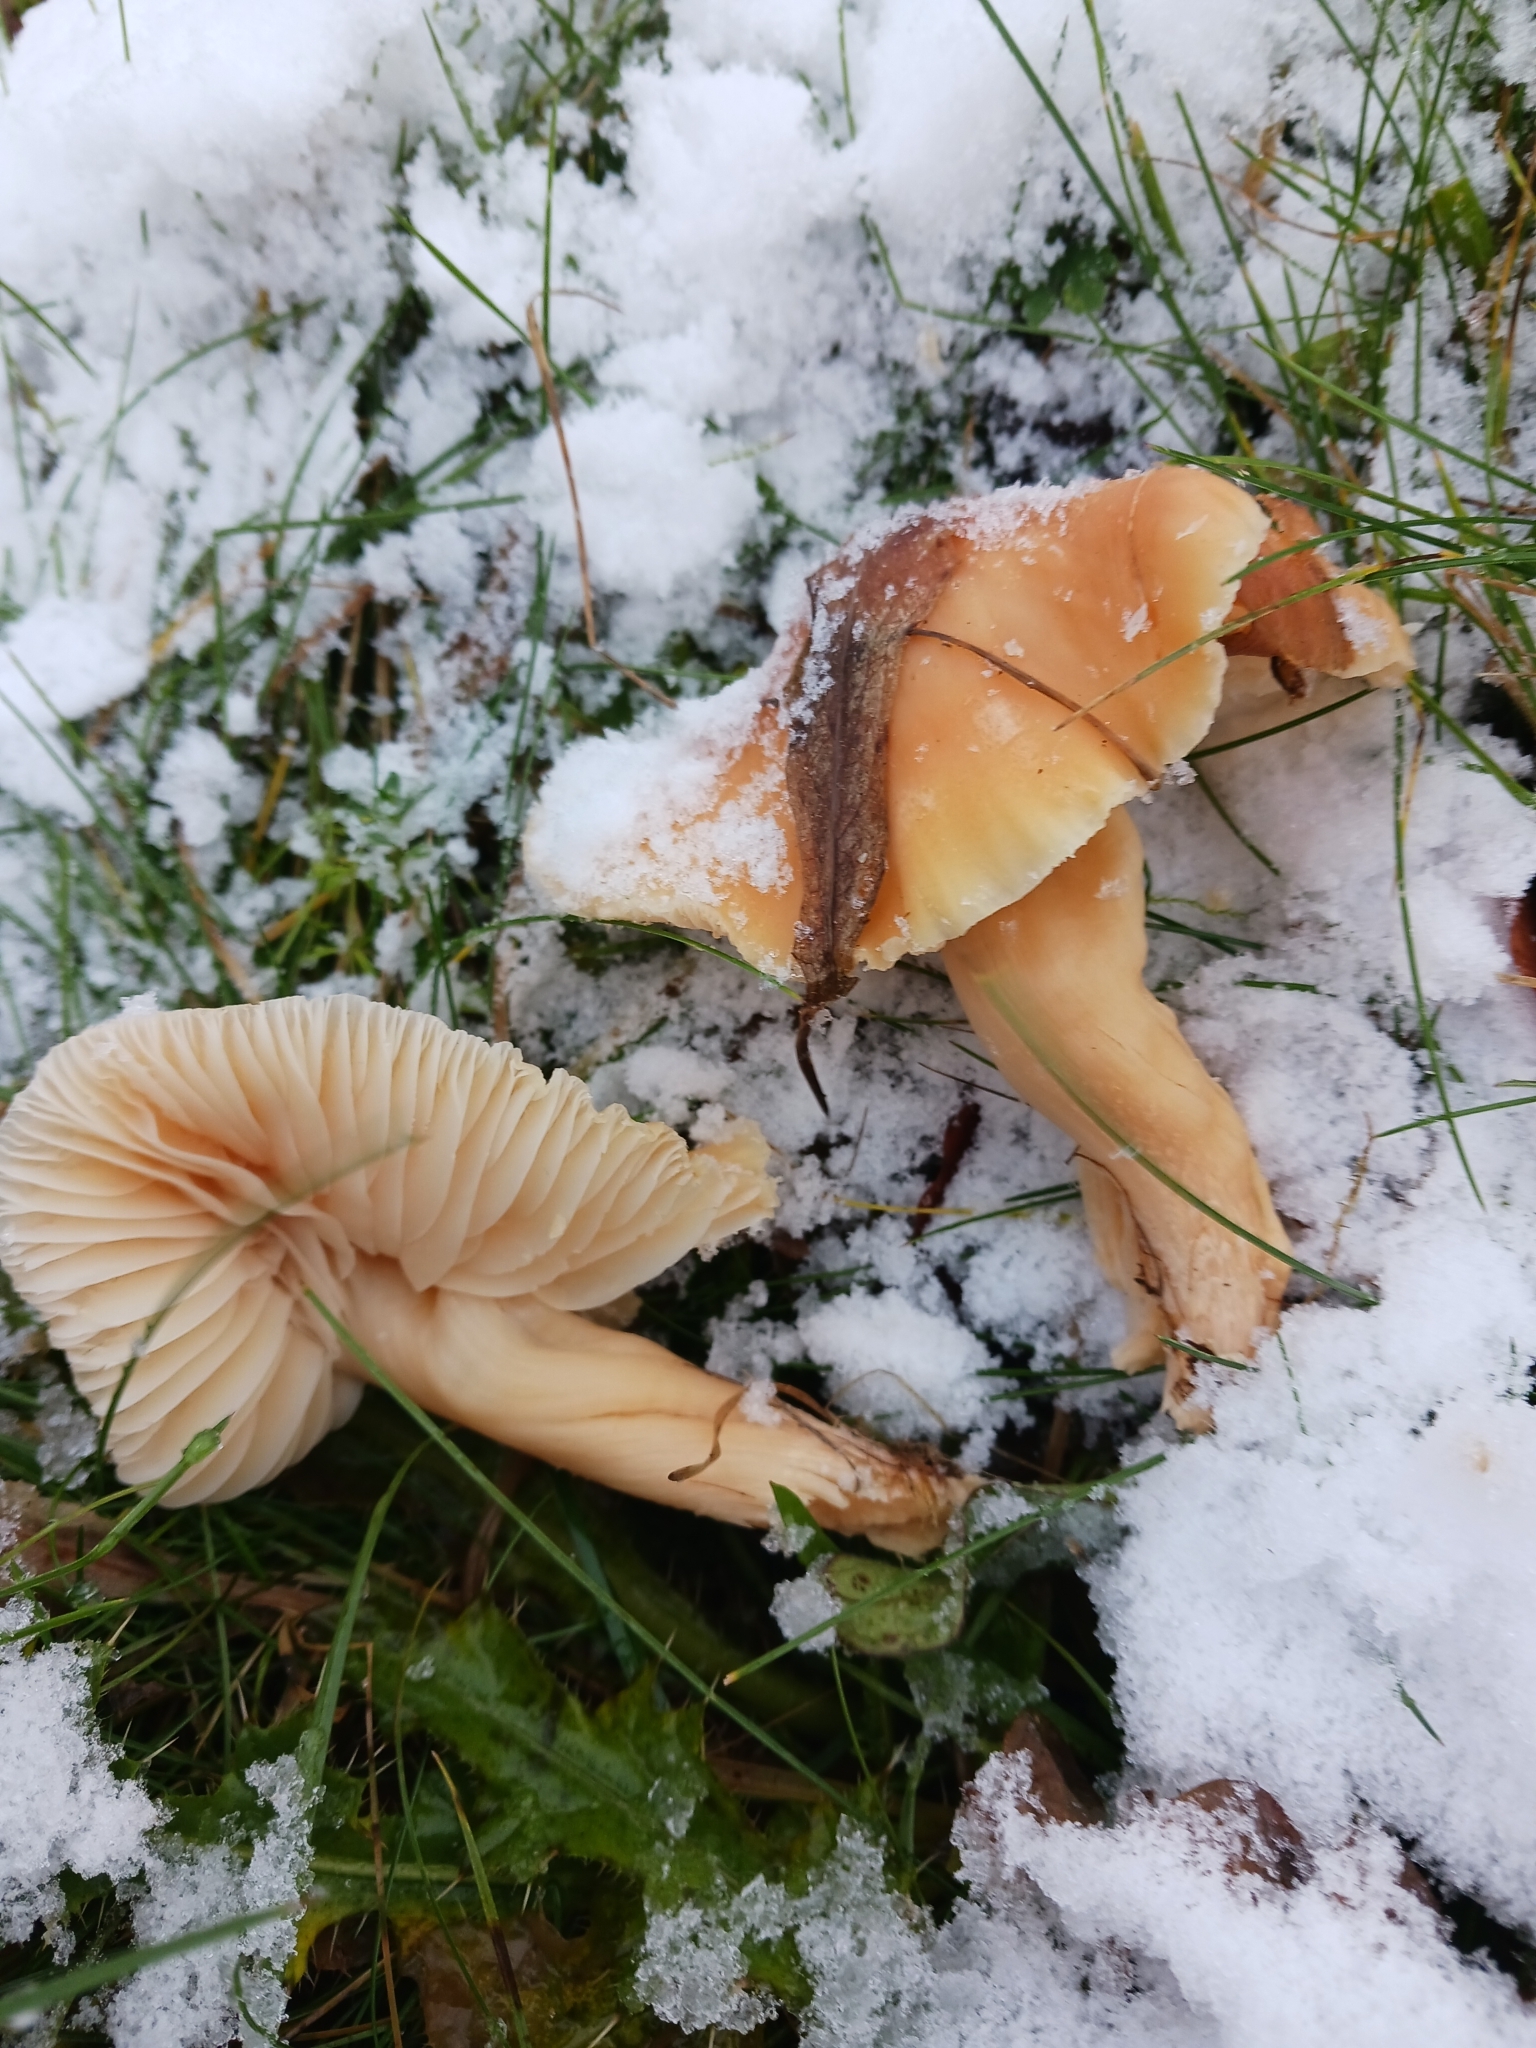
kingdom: Fungi
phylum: Basidiomycota
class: Agaricomycetes
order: Agaricales
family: Hygrophoraceae
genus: Cuphophyllus
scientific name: Cuphophyllus pratensis
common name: Meadow waxcap
